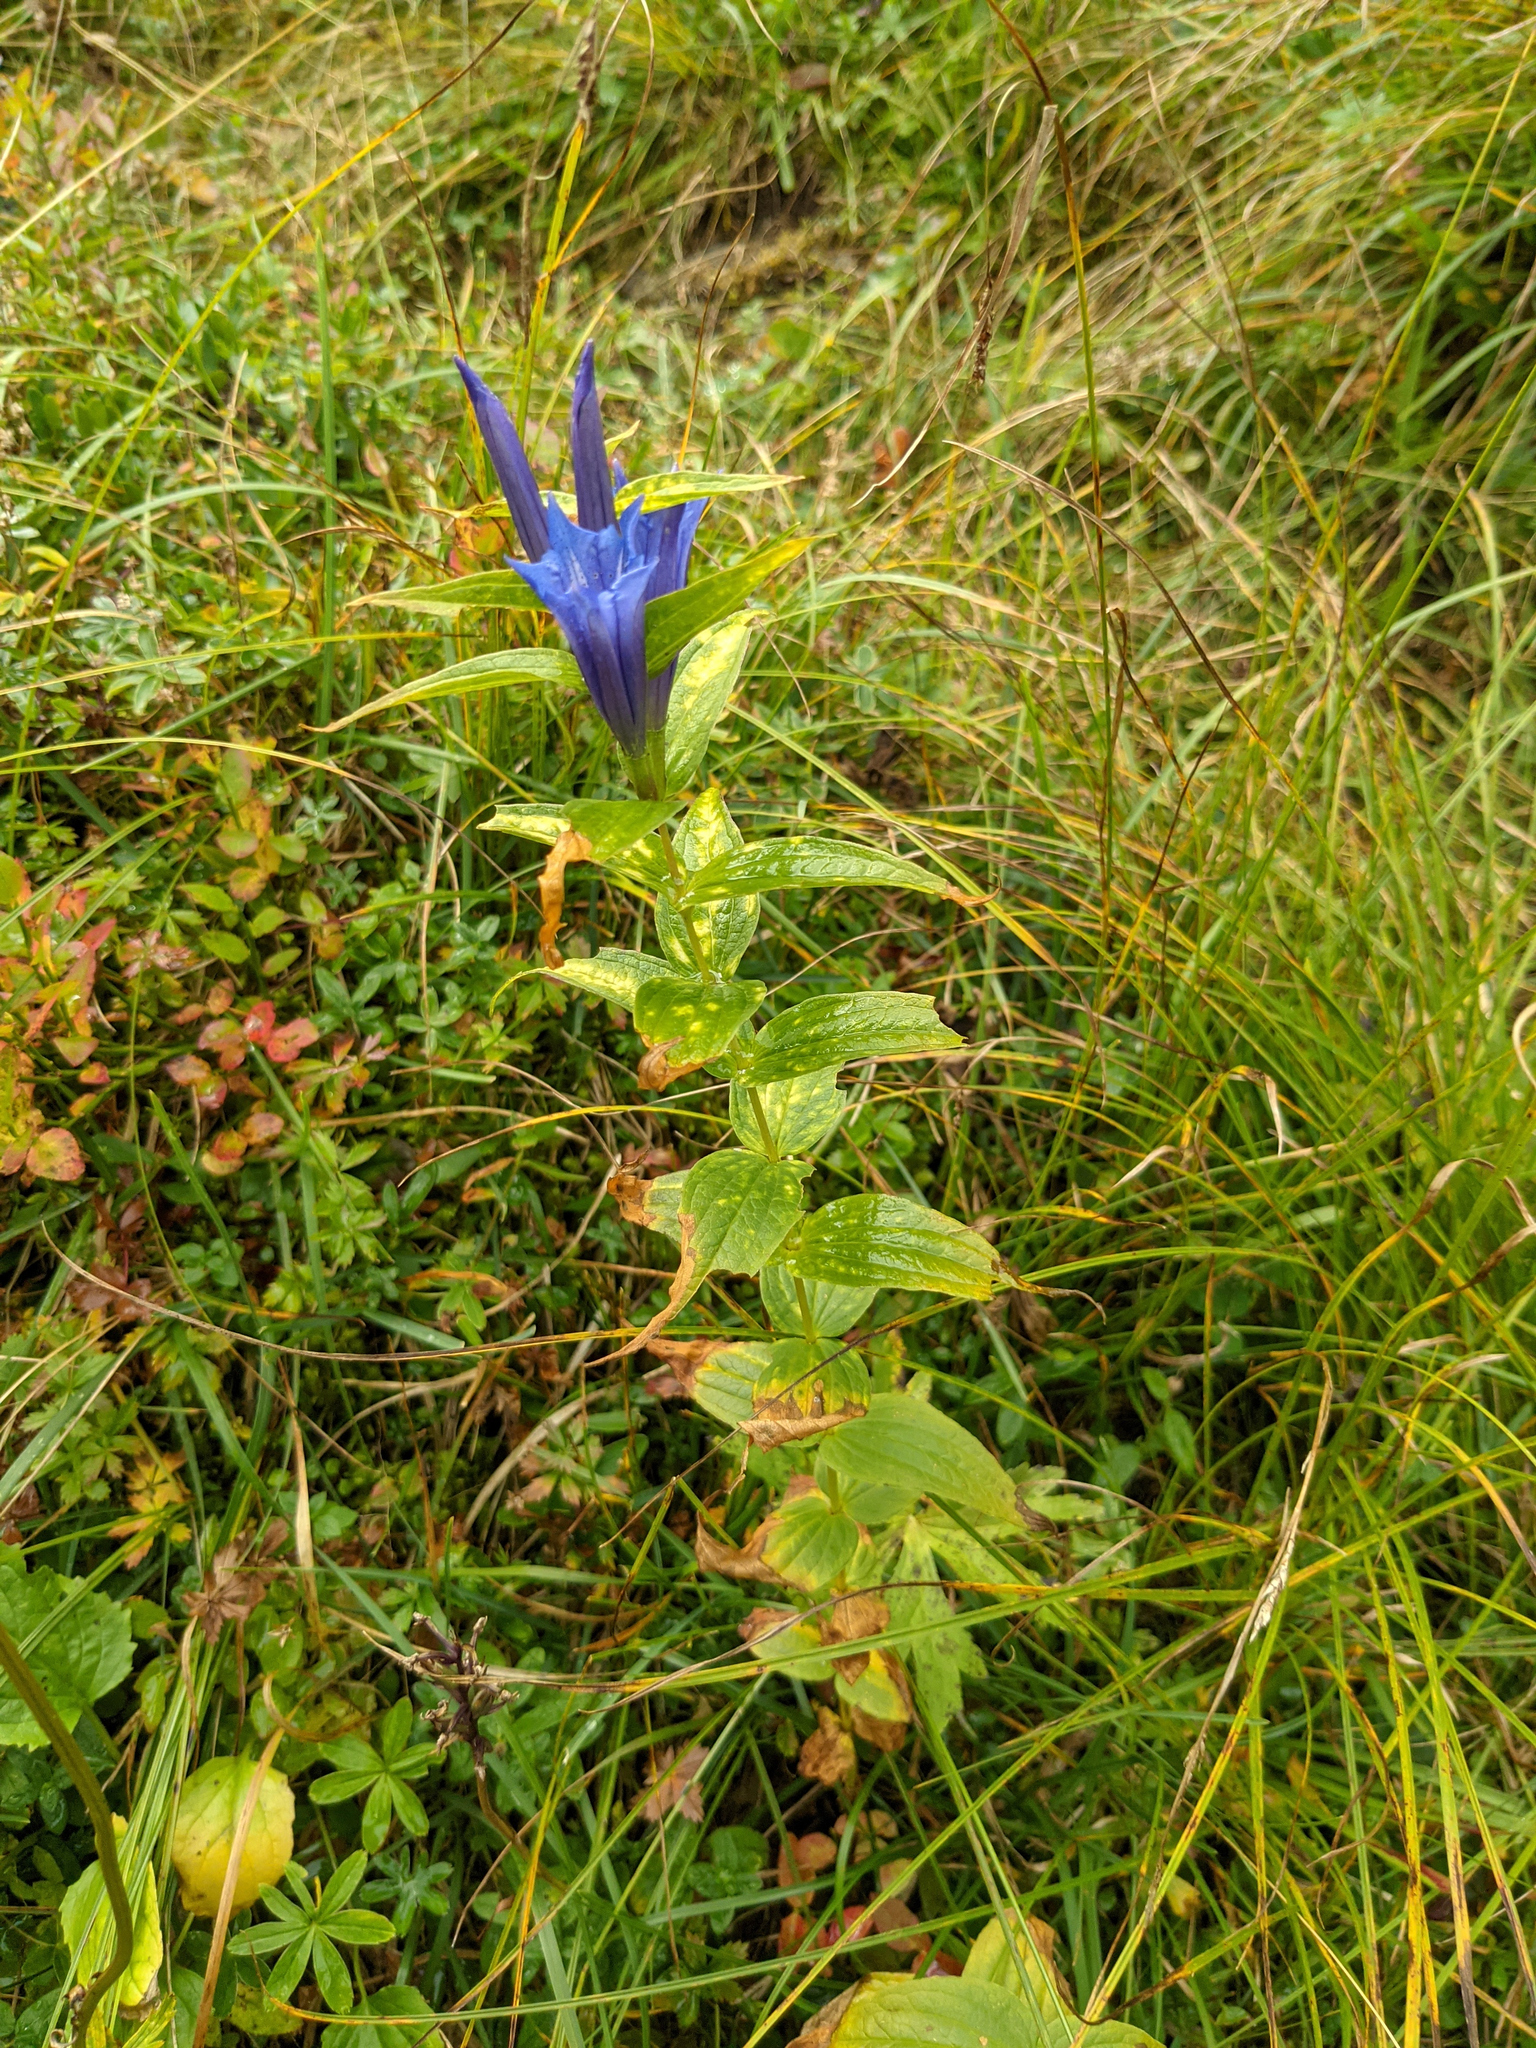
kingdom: Plantae
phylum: Tracheophyta
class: Magnoliopsida
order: Gentianales
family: Gentianaceae
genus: Gentiana
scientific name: Gentiana asclepiadea
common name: Willow gentian
